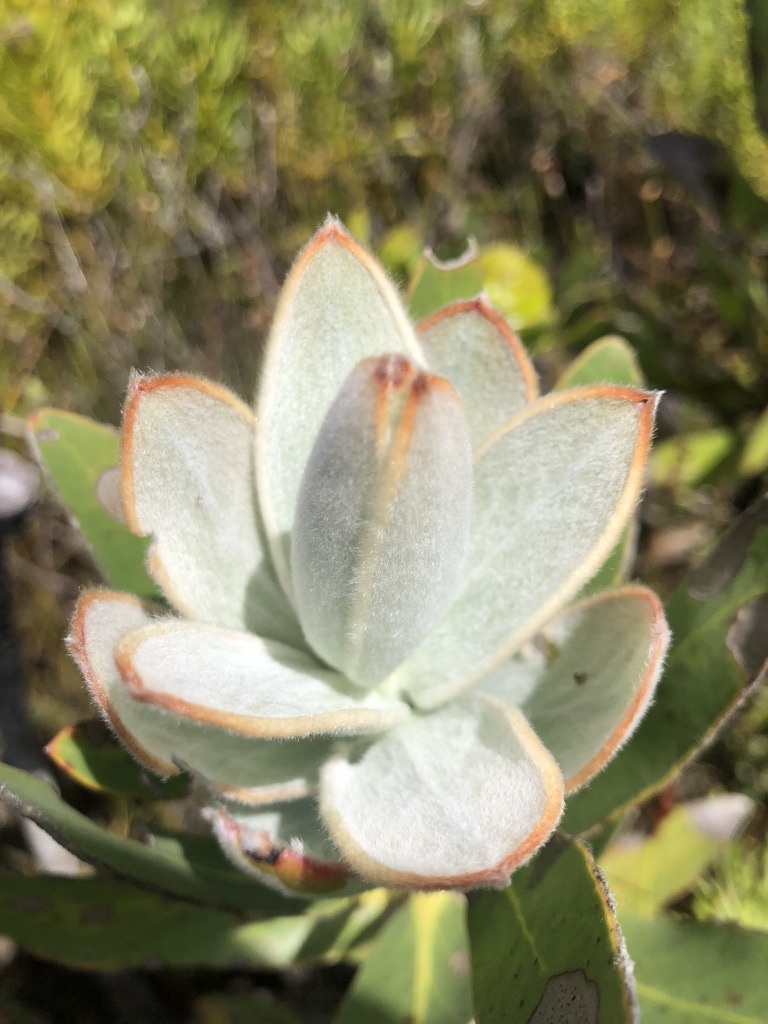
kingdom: Plantae
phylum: Tracheophyta
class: Magnoliopsida
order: Proteales
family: Proteaceae
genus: Protea
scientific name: Protea compacta
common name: Bot river protea
